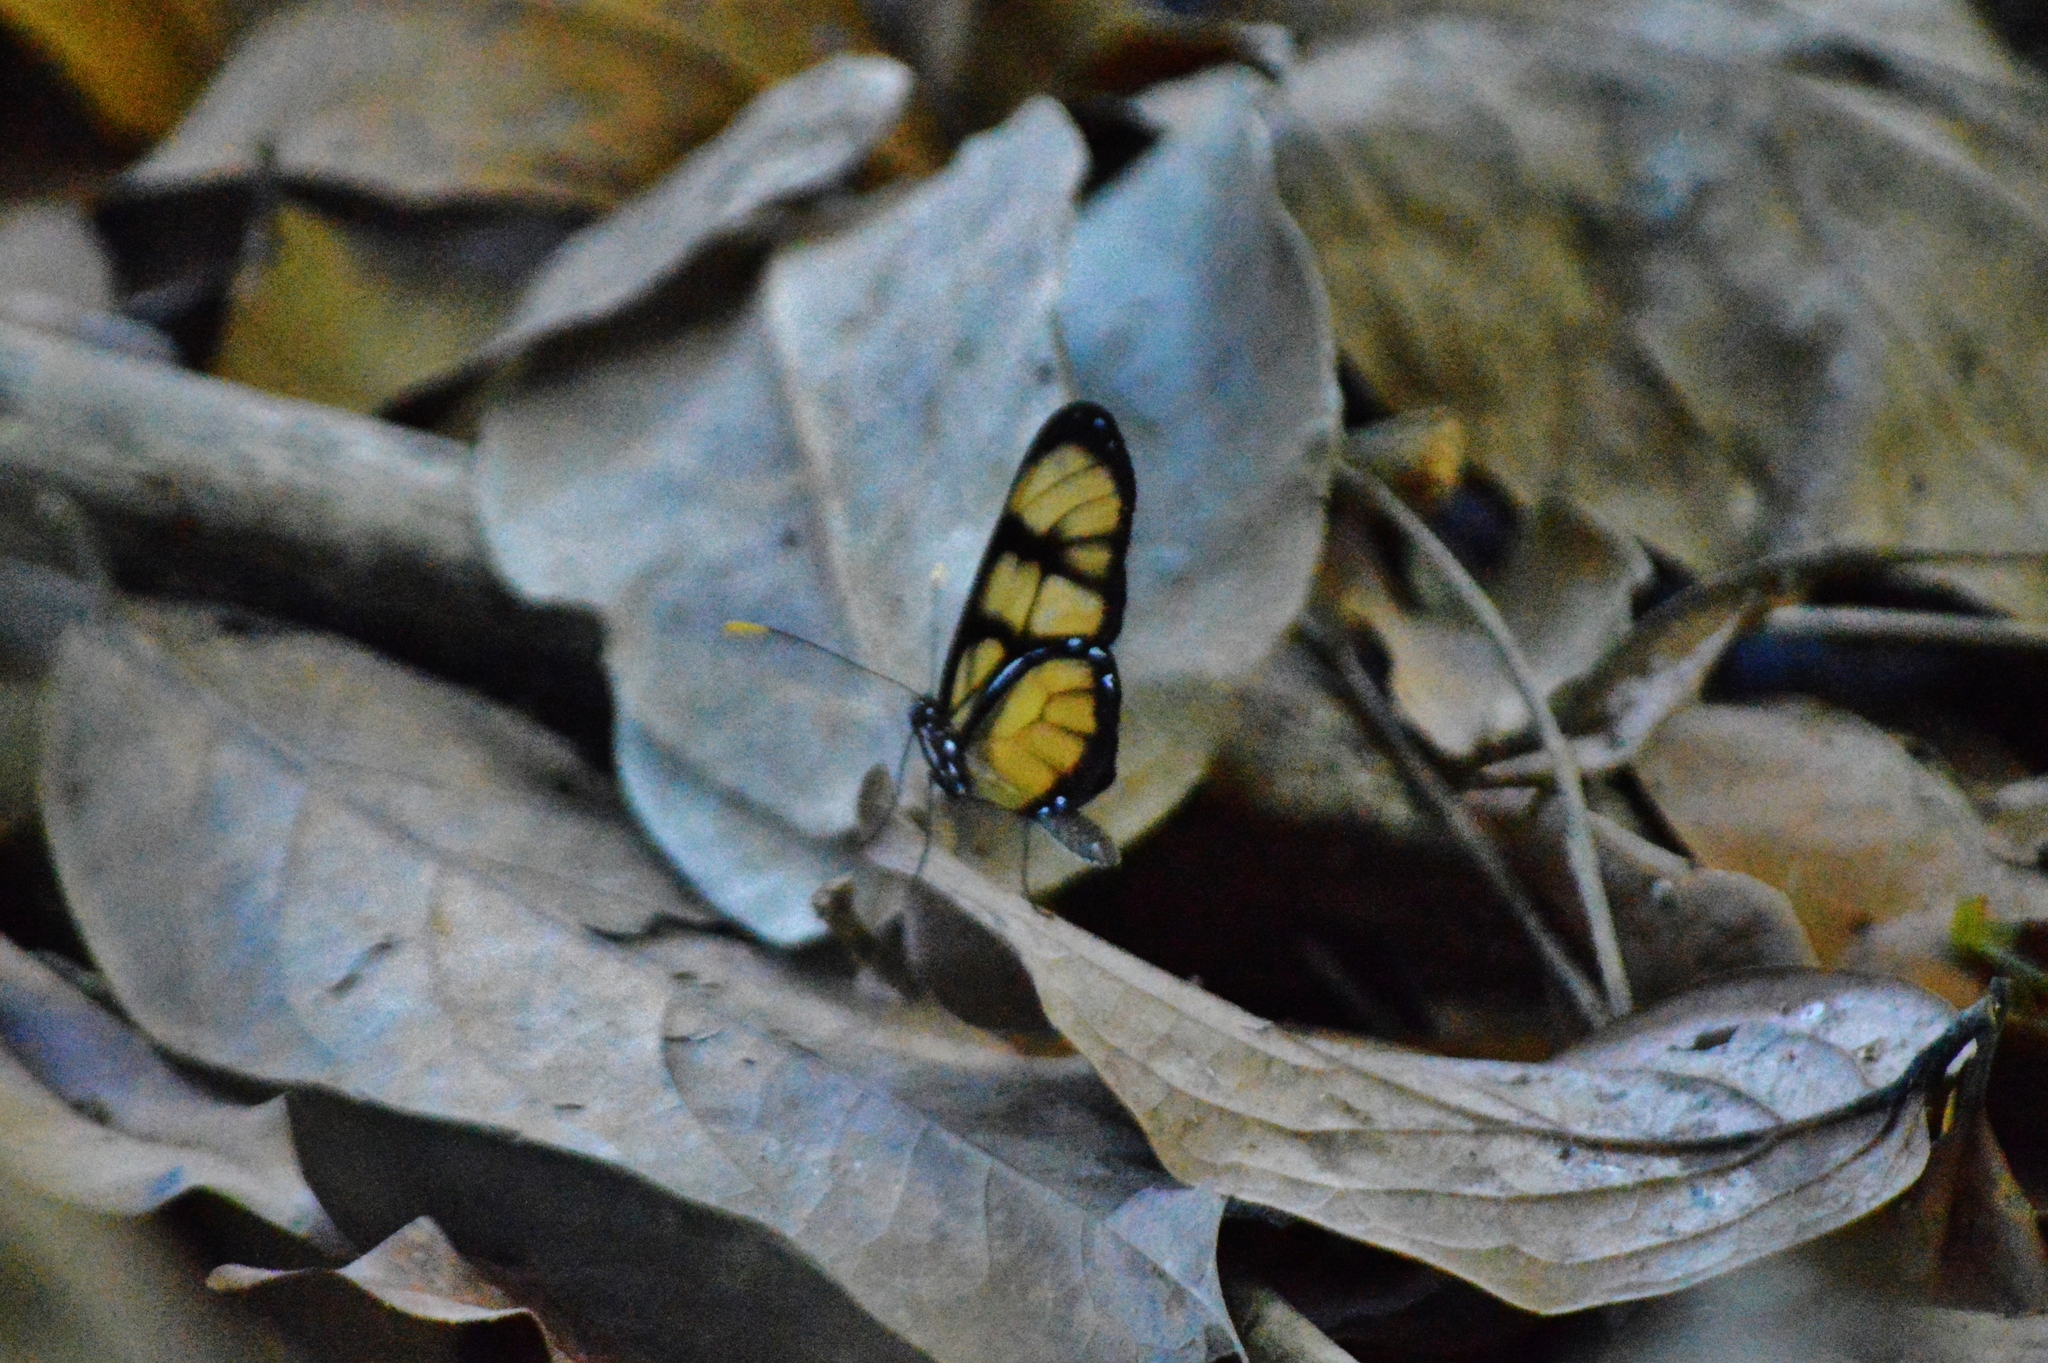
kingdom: Animalia
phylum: Arthropoda
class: Insecta
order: Lepidoptera
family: Nymphalidae
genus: Dircenna
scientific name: Dircenna dero
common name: Dero clearwing
